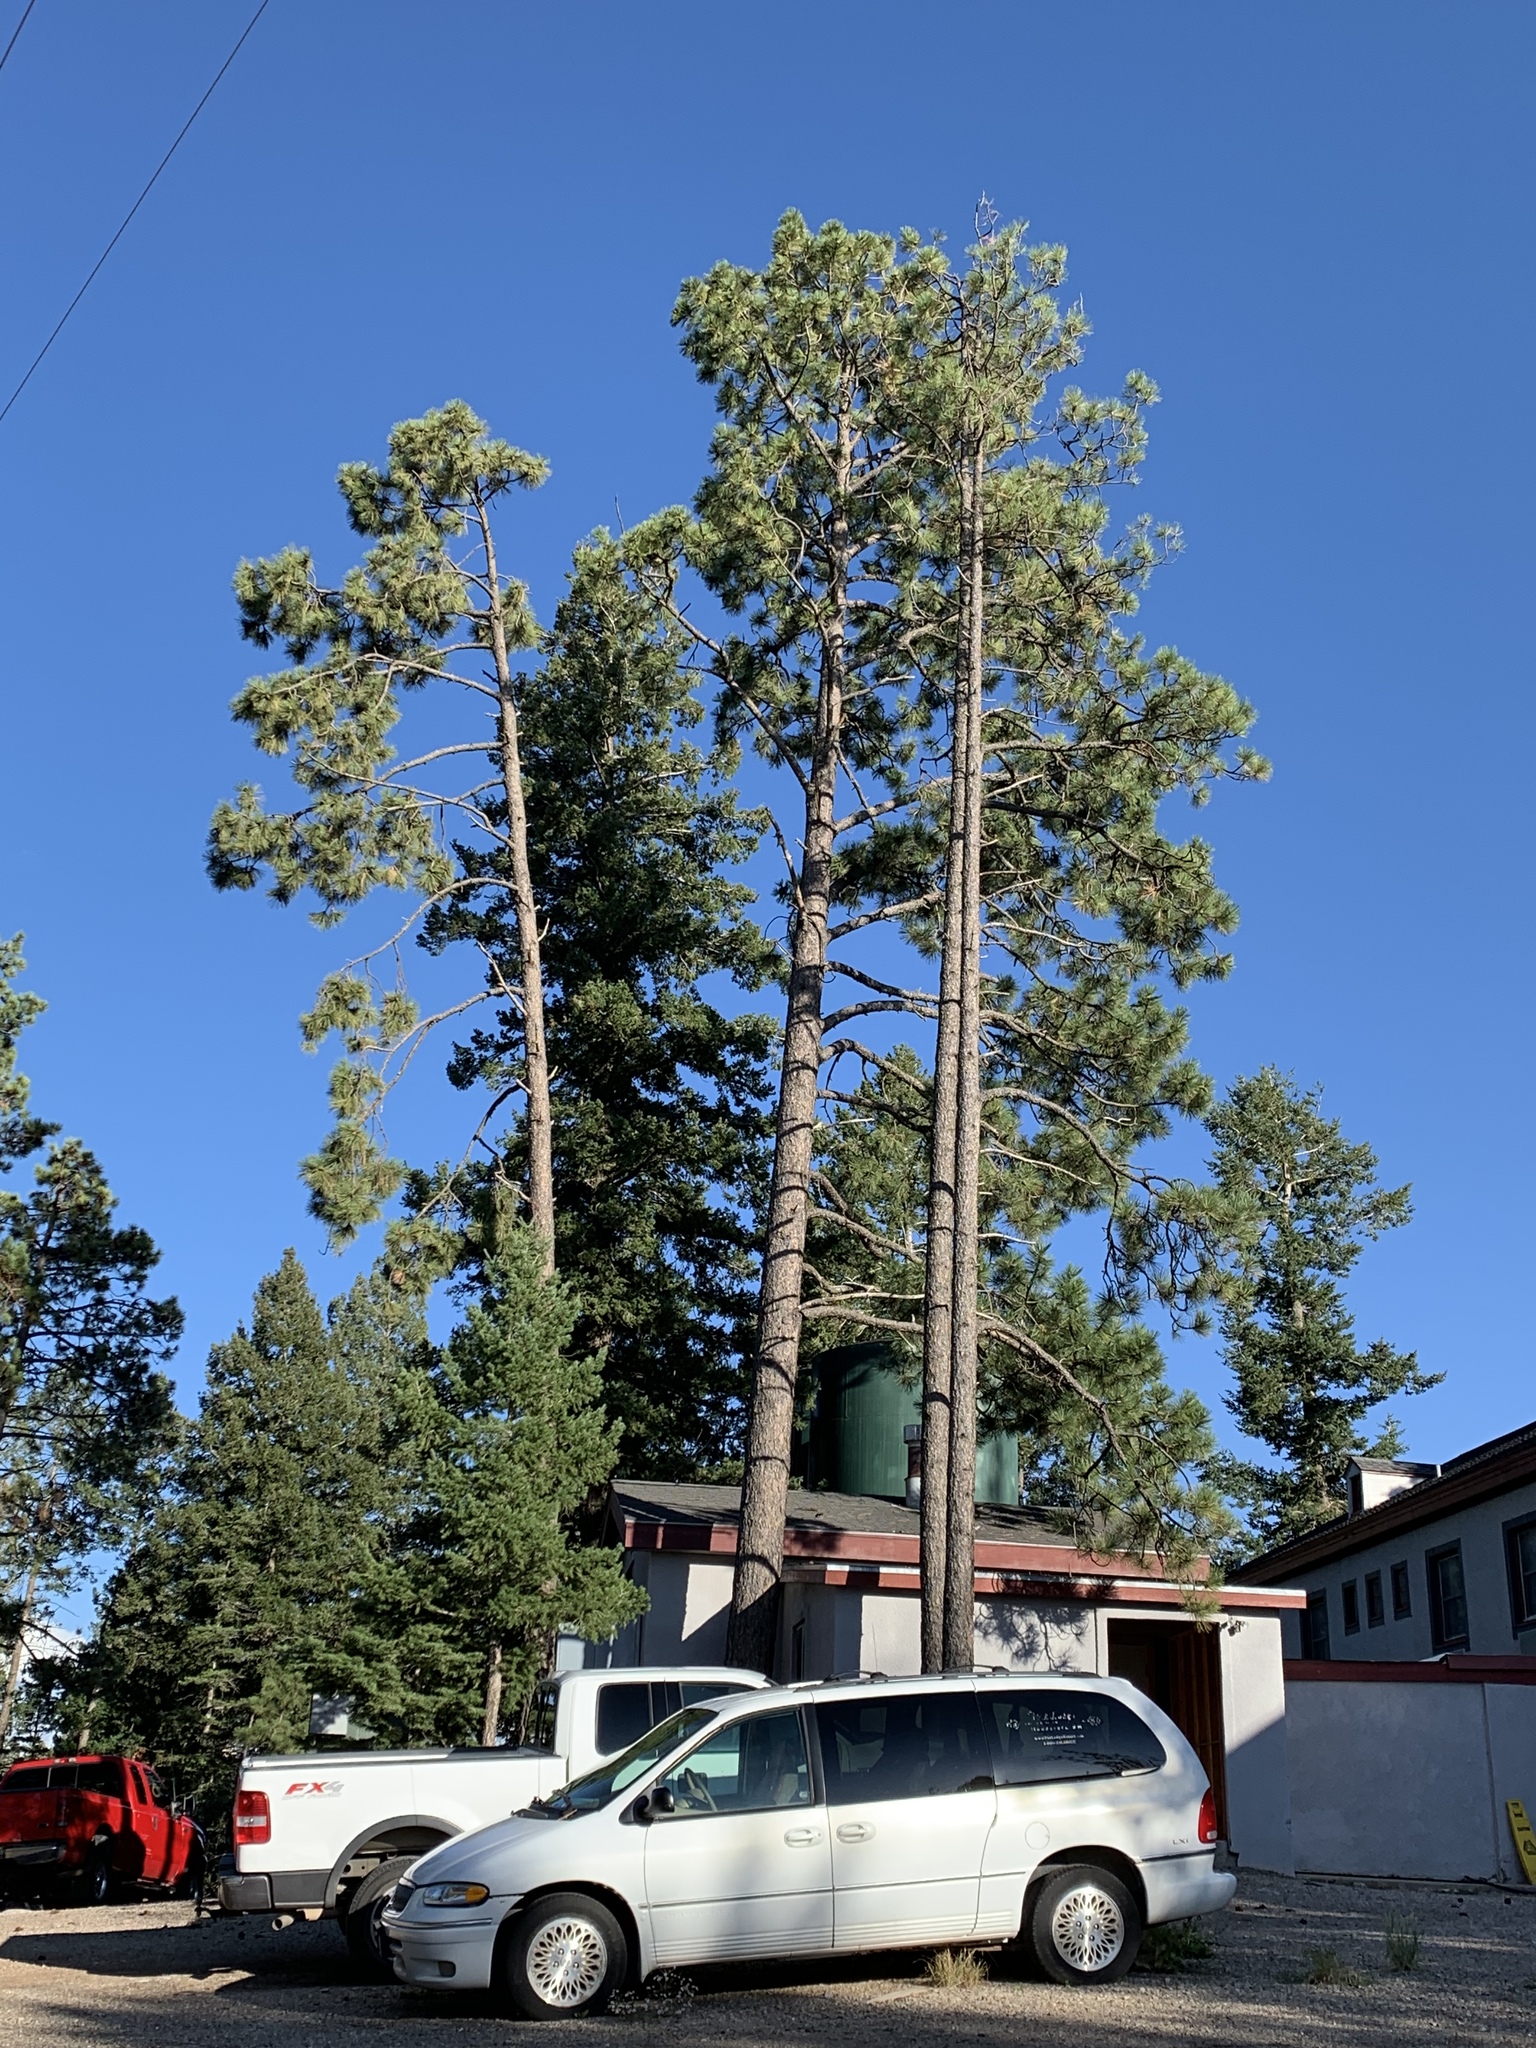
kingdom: Plantae
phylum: Tracheophyta
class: Pinopsida
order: Pinales
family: Pinaceae
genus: Pinus
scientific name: Pinus ponderosa
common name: Western yellow-pine
